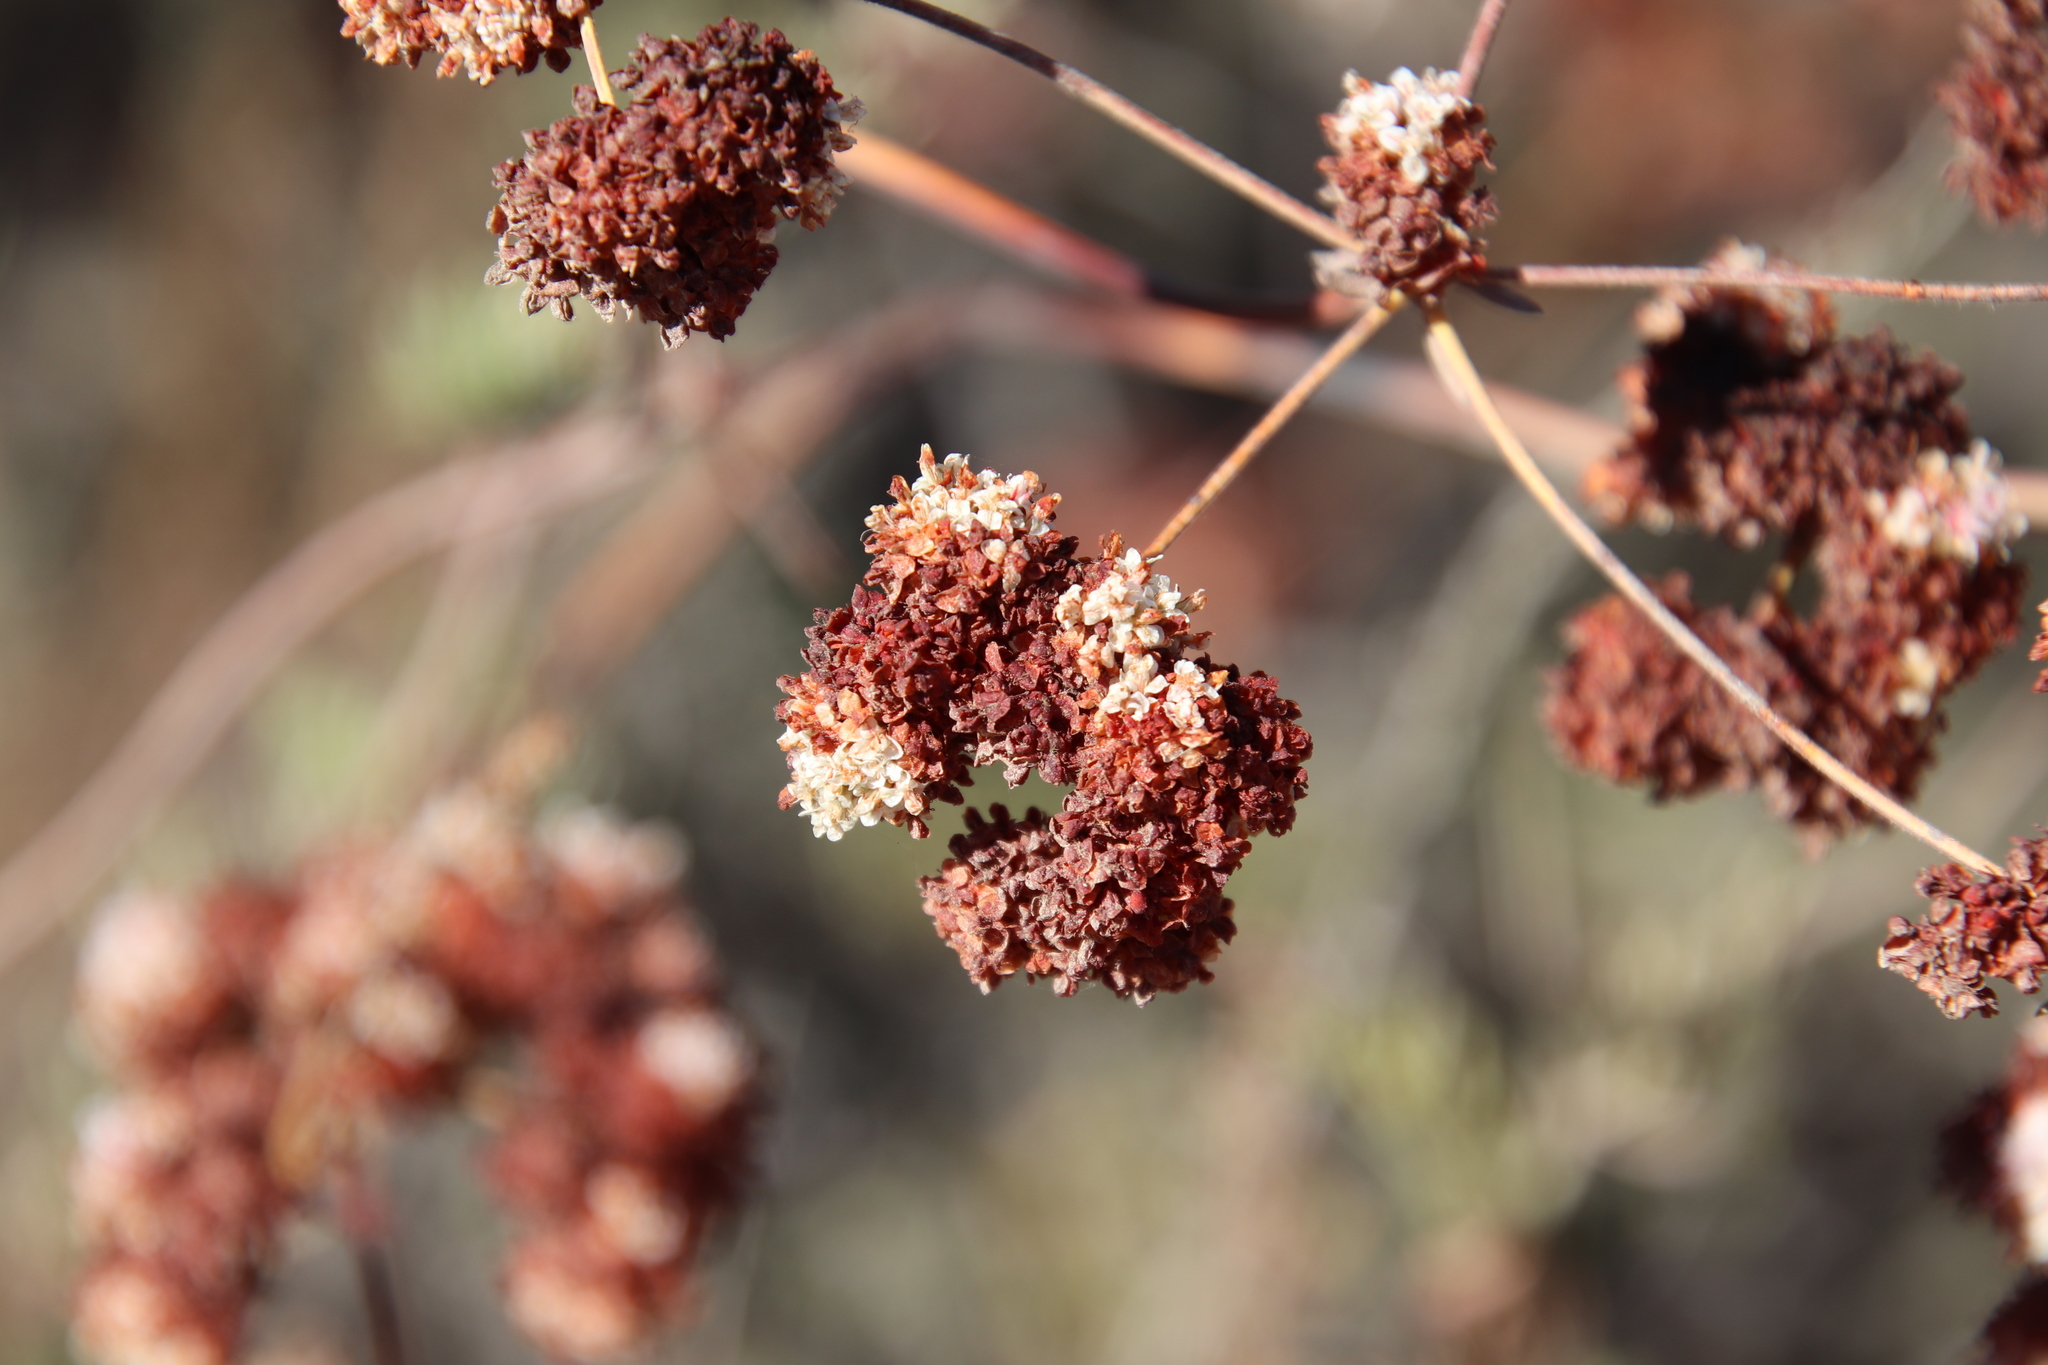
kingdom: Plantae
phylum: Tracheophyta
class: Magnoliopsida
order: Caryophyllales
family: Polygonaceae
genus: Eriogonum
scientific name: Eriogonum fasciculatum
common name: California wild buckwheat
